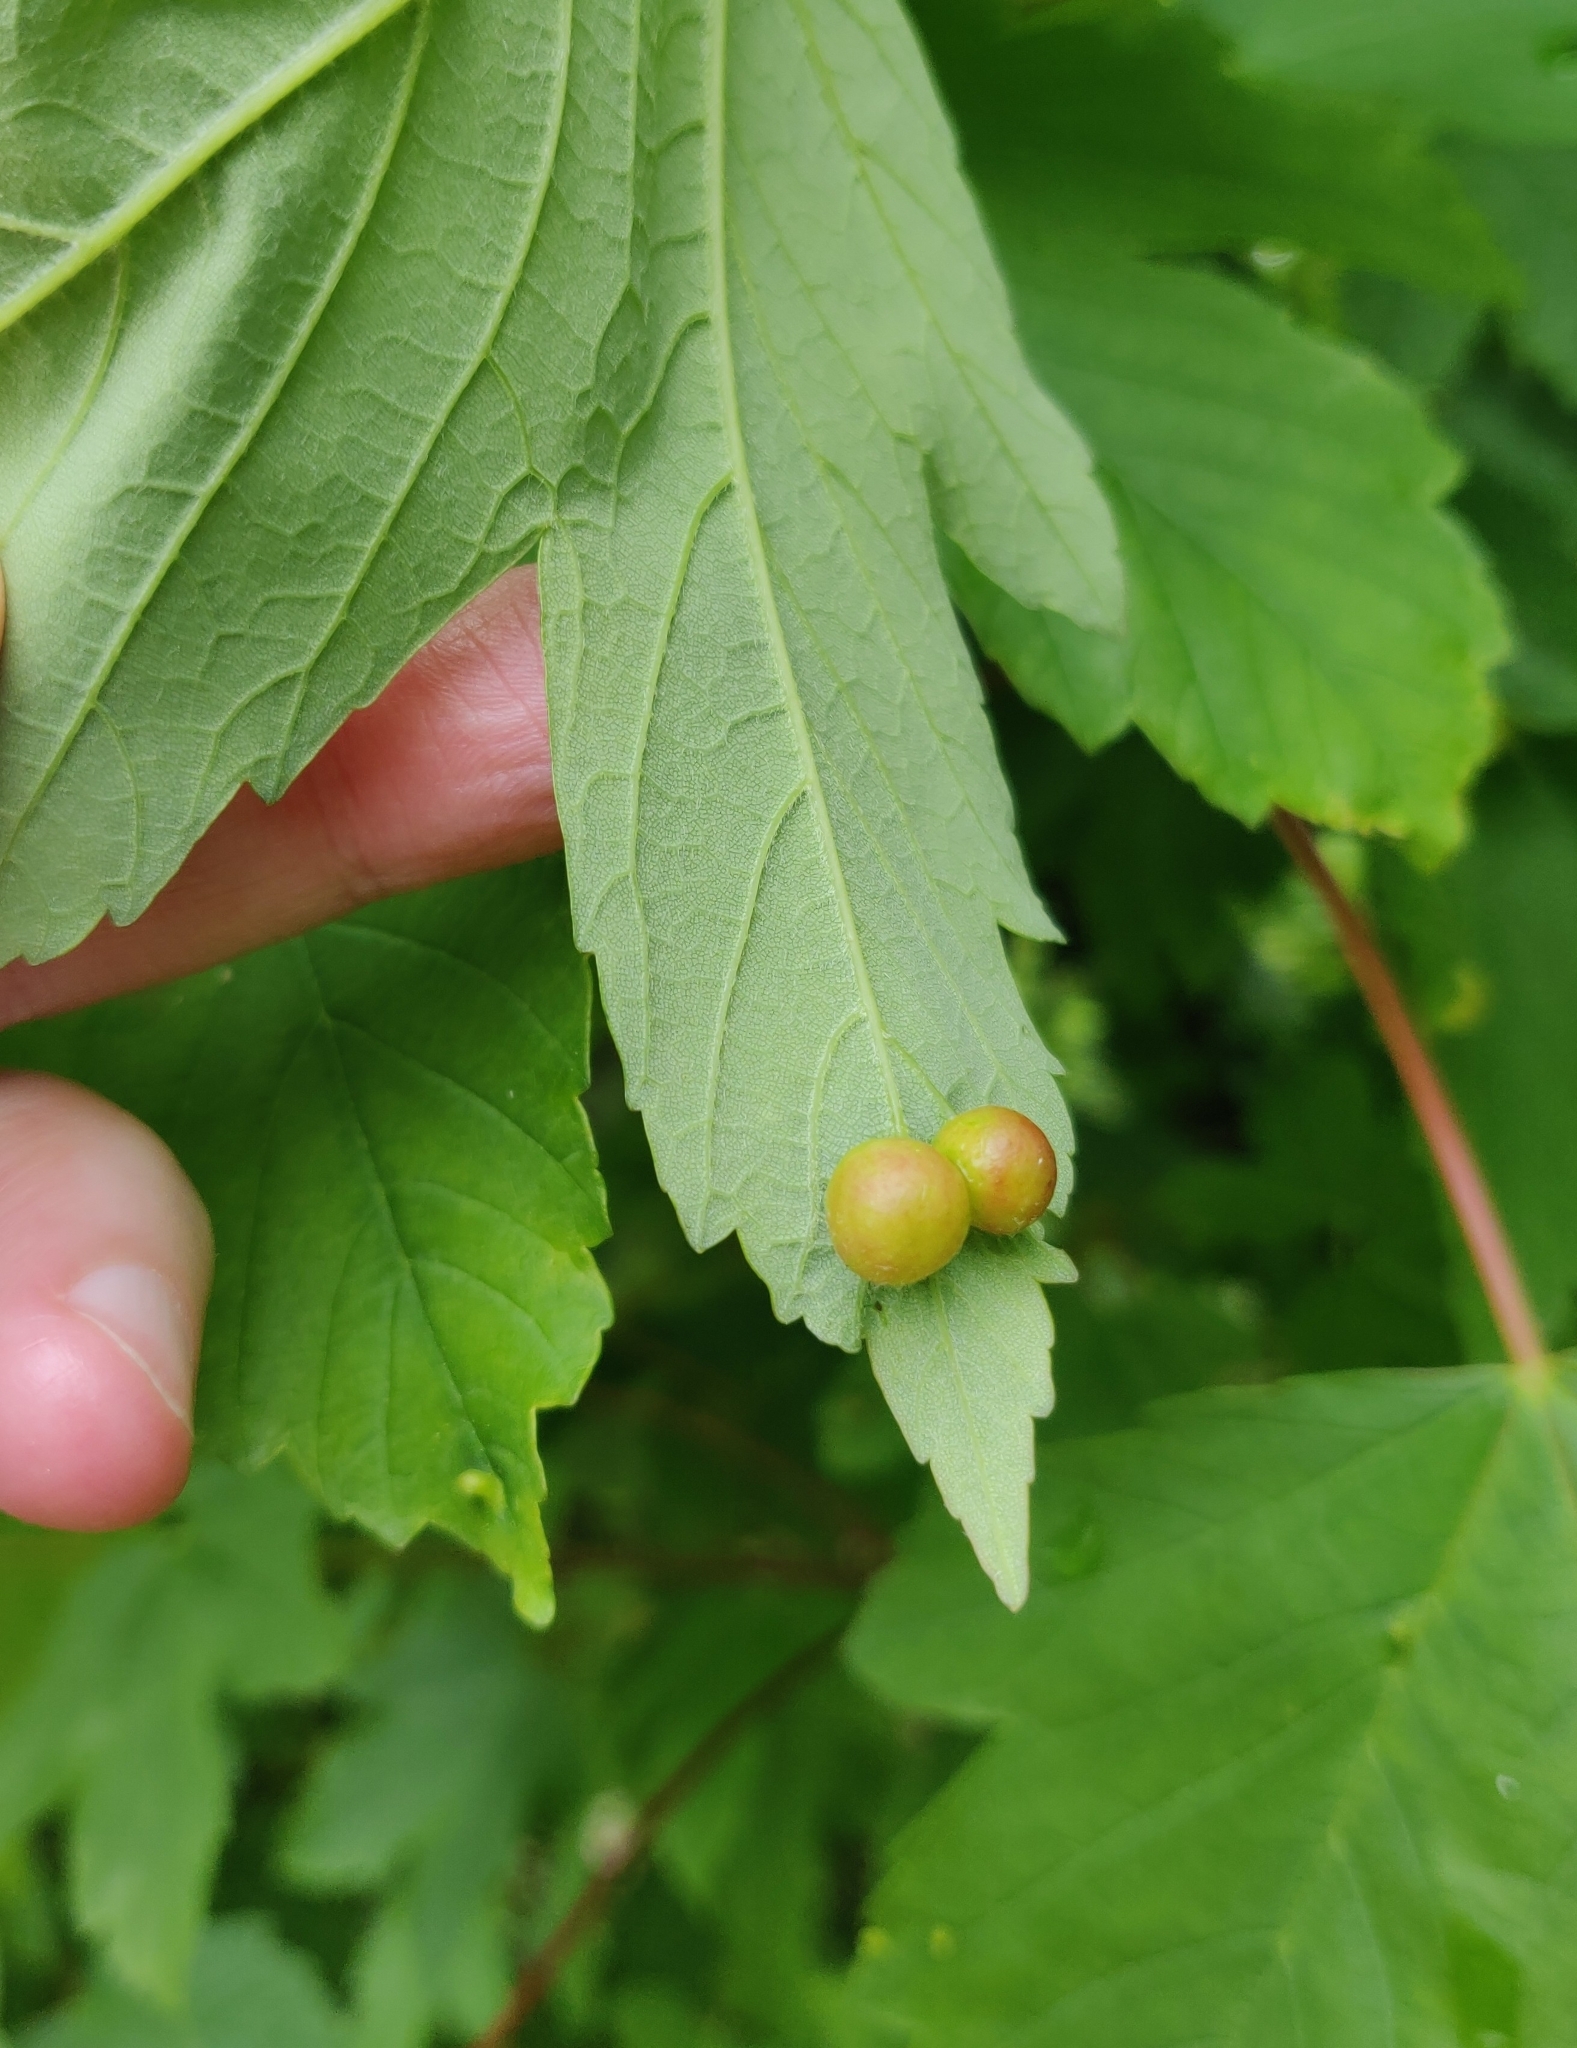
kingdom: Animalia
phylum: Arthropoda
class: Insecta
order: Hymenoptera
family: Cynipidae
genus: Pediaspis
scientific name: Pediaspis aceris
